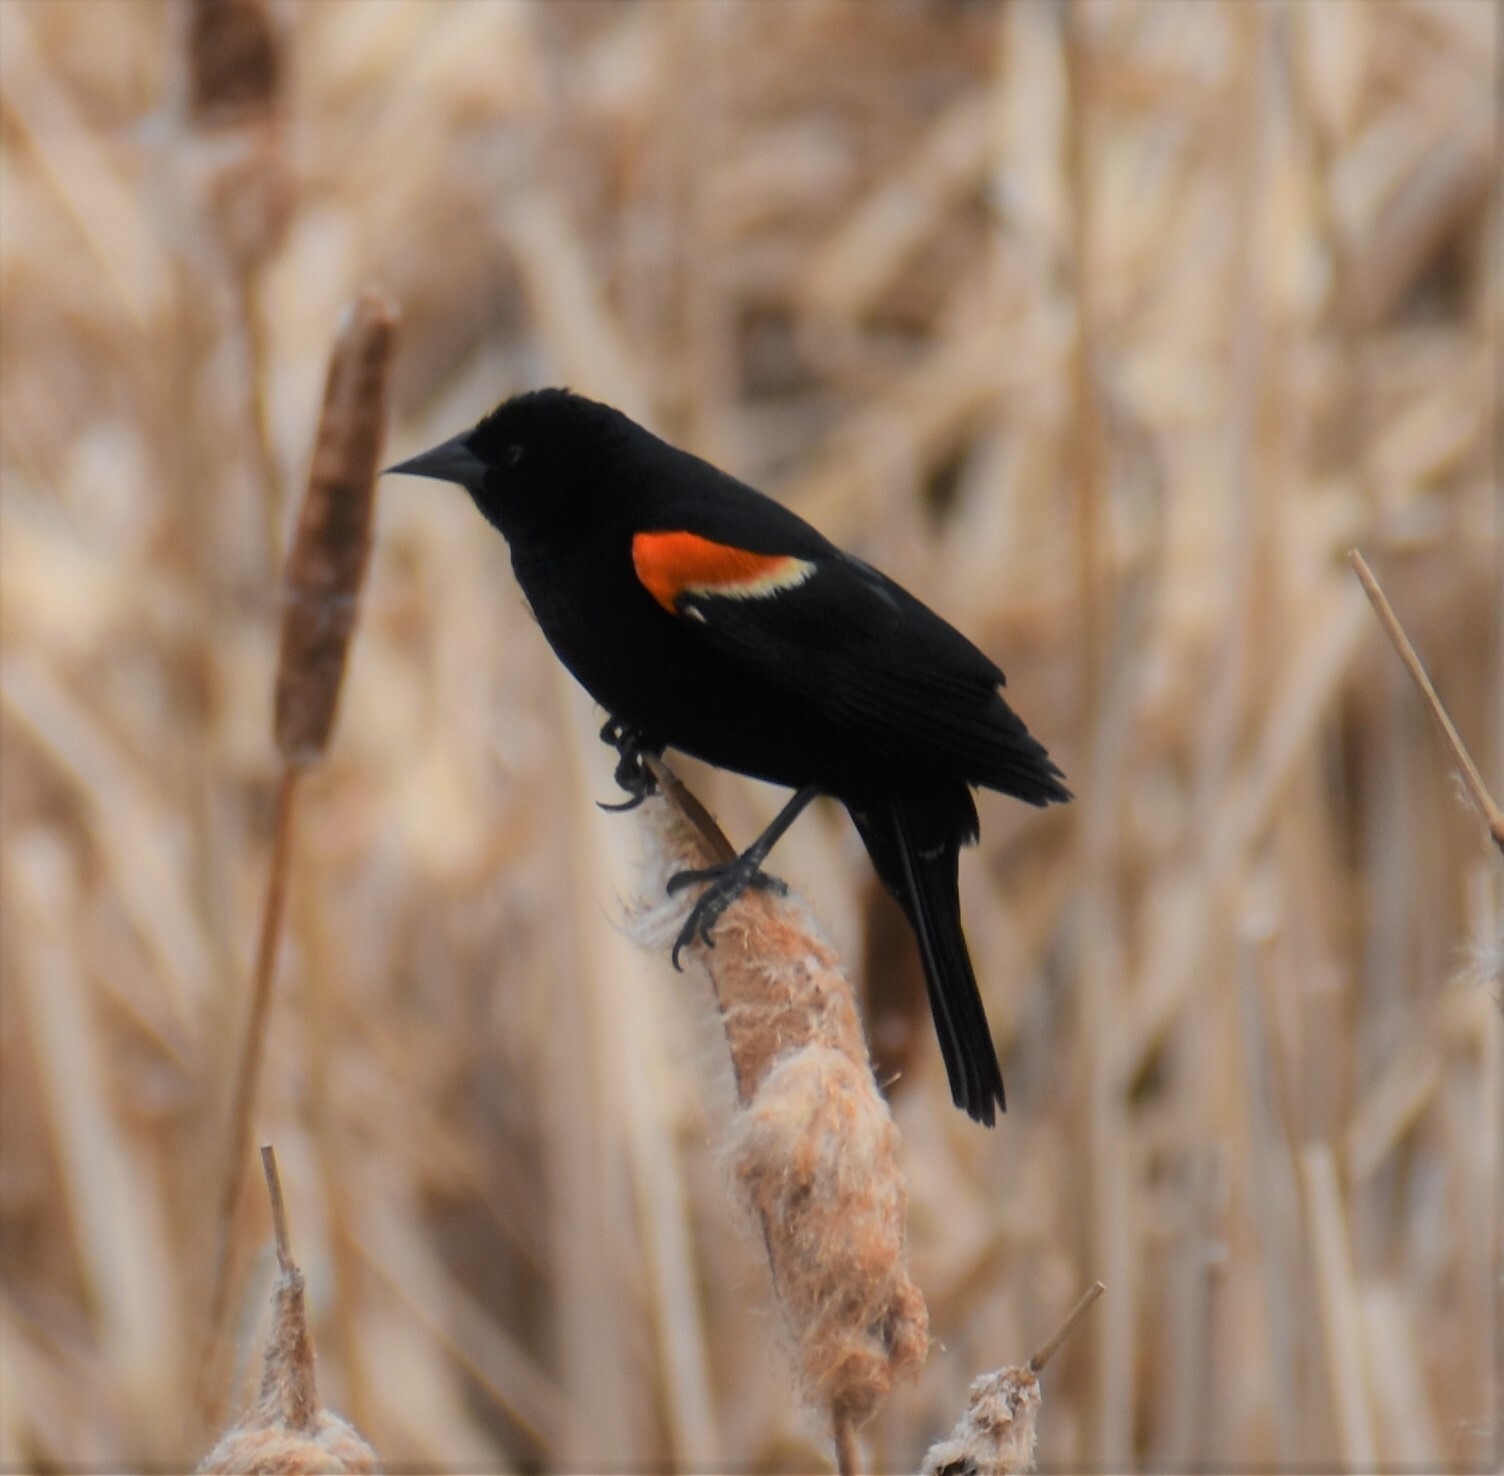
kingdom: Animalia
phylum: Chordata
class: Aves
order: Passeriformes
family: Icteridae
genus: Agelaius
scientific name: Agelaius phoeniceus
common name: Red-winged blackbird
